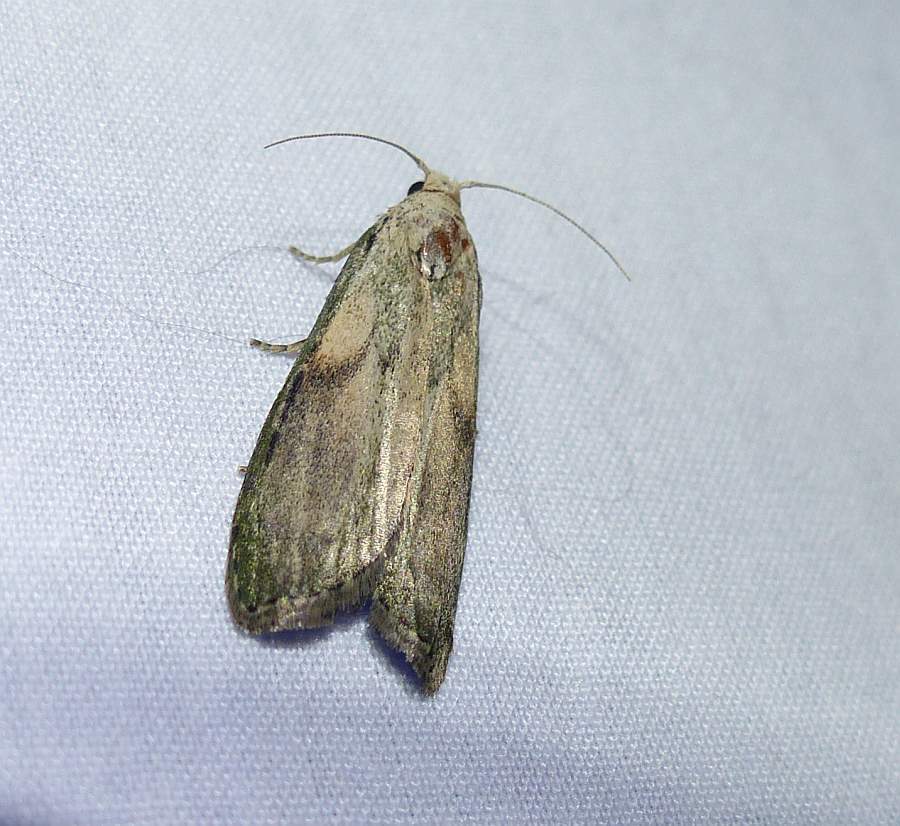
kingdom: Animalia
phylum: Arthropoda
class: Insecta
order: Lepidoptera
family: Pyralidae
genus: Aphomia
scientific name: Aphomia sociella
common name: Bee moth
